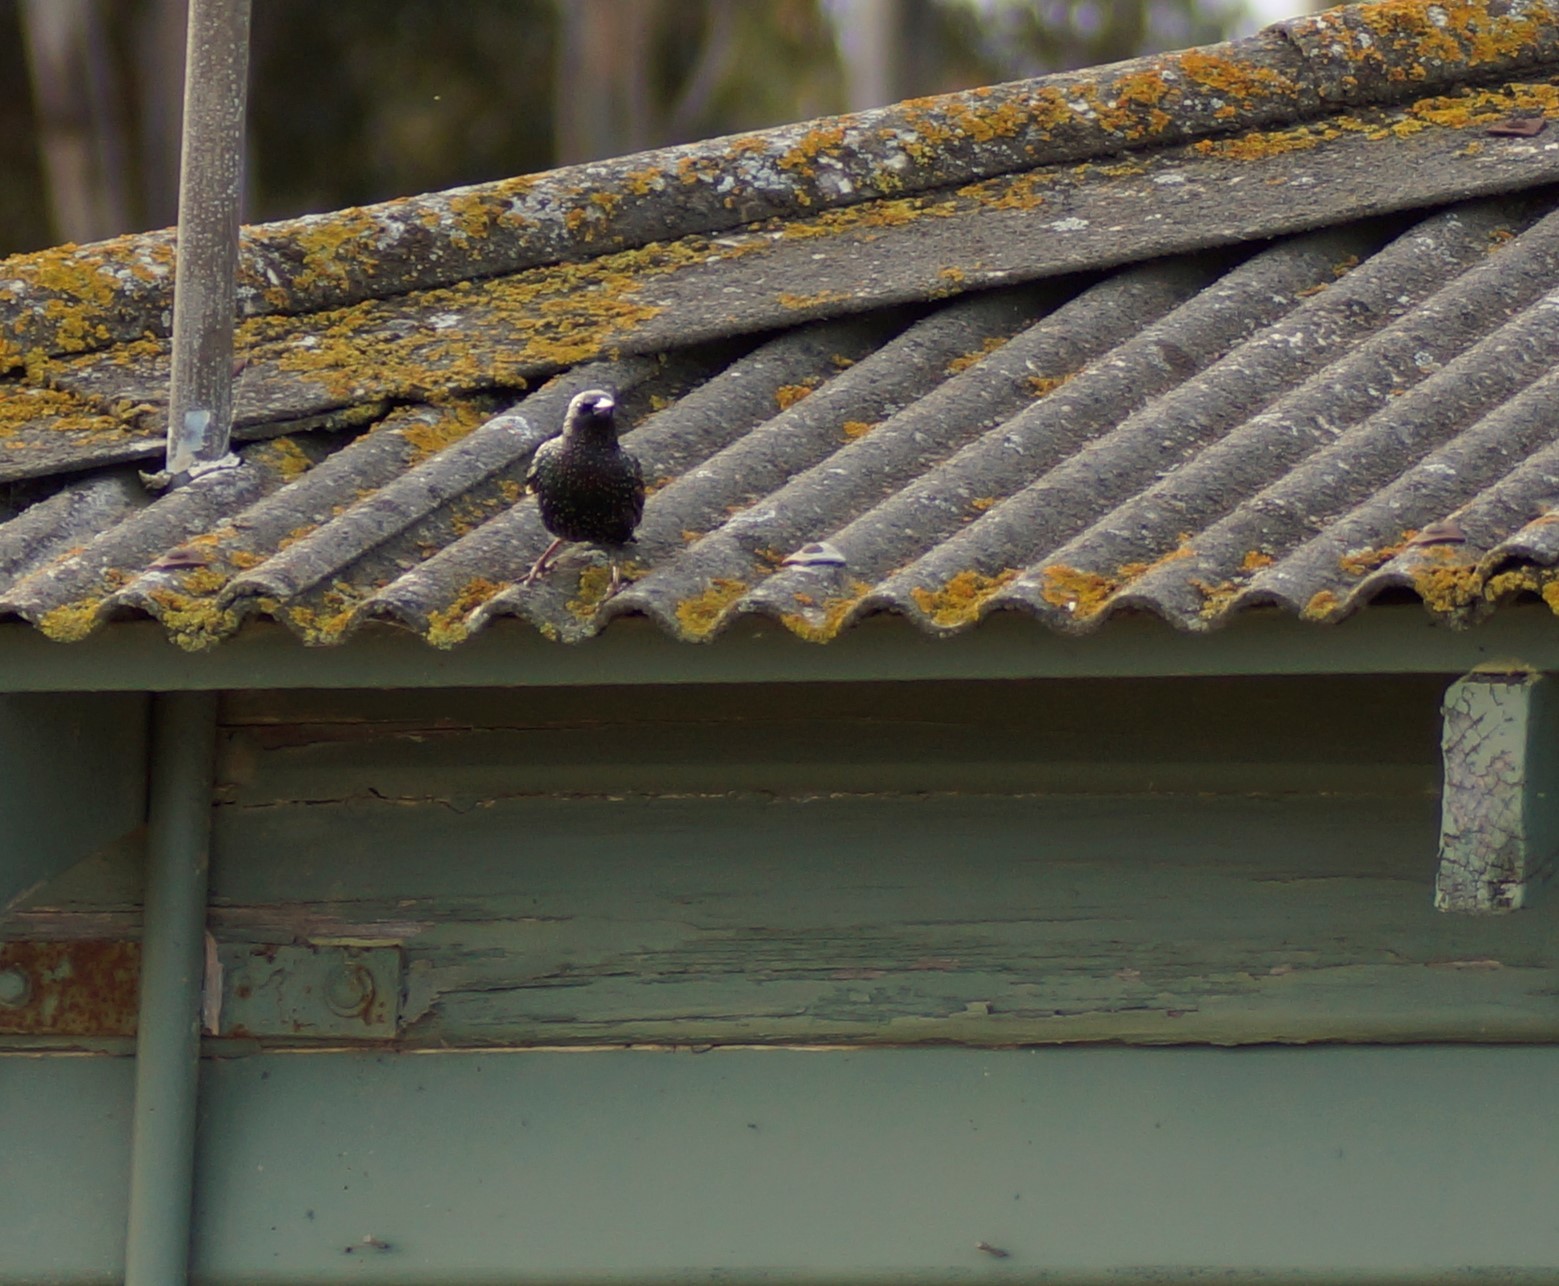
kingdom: Animalia
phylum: Chordata
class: Aves
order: Passeriformes
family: Sturnidae
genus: Sturnus
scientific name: Sturnus vulgaris
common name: Common starling
